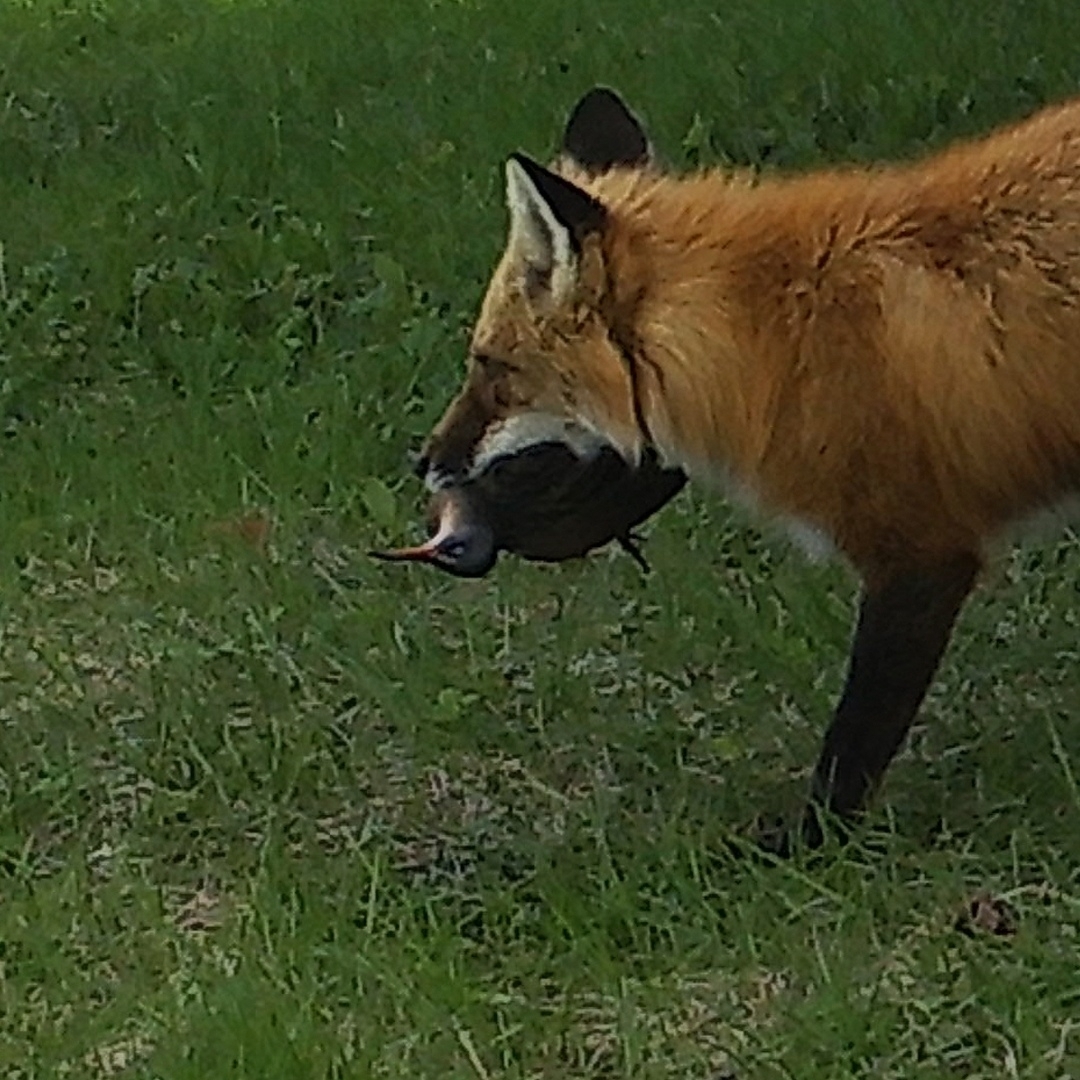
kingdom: Animalia
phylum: Chordata
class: Aves
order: Gruiformes
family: Rallidae
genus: Rallus
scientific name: Rallus limicola
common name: Virginia rail
